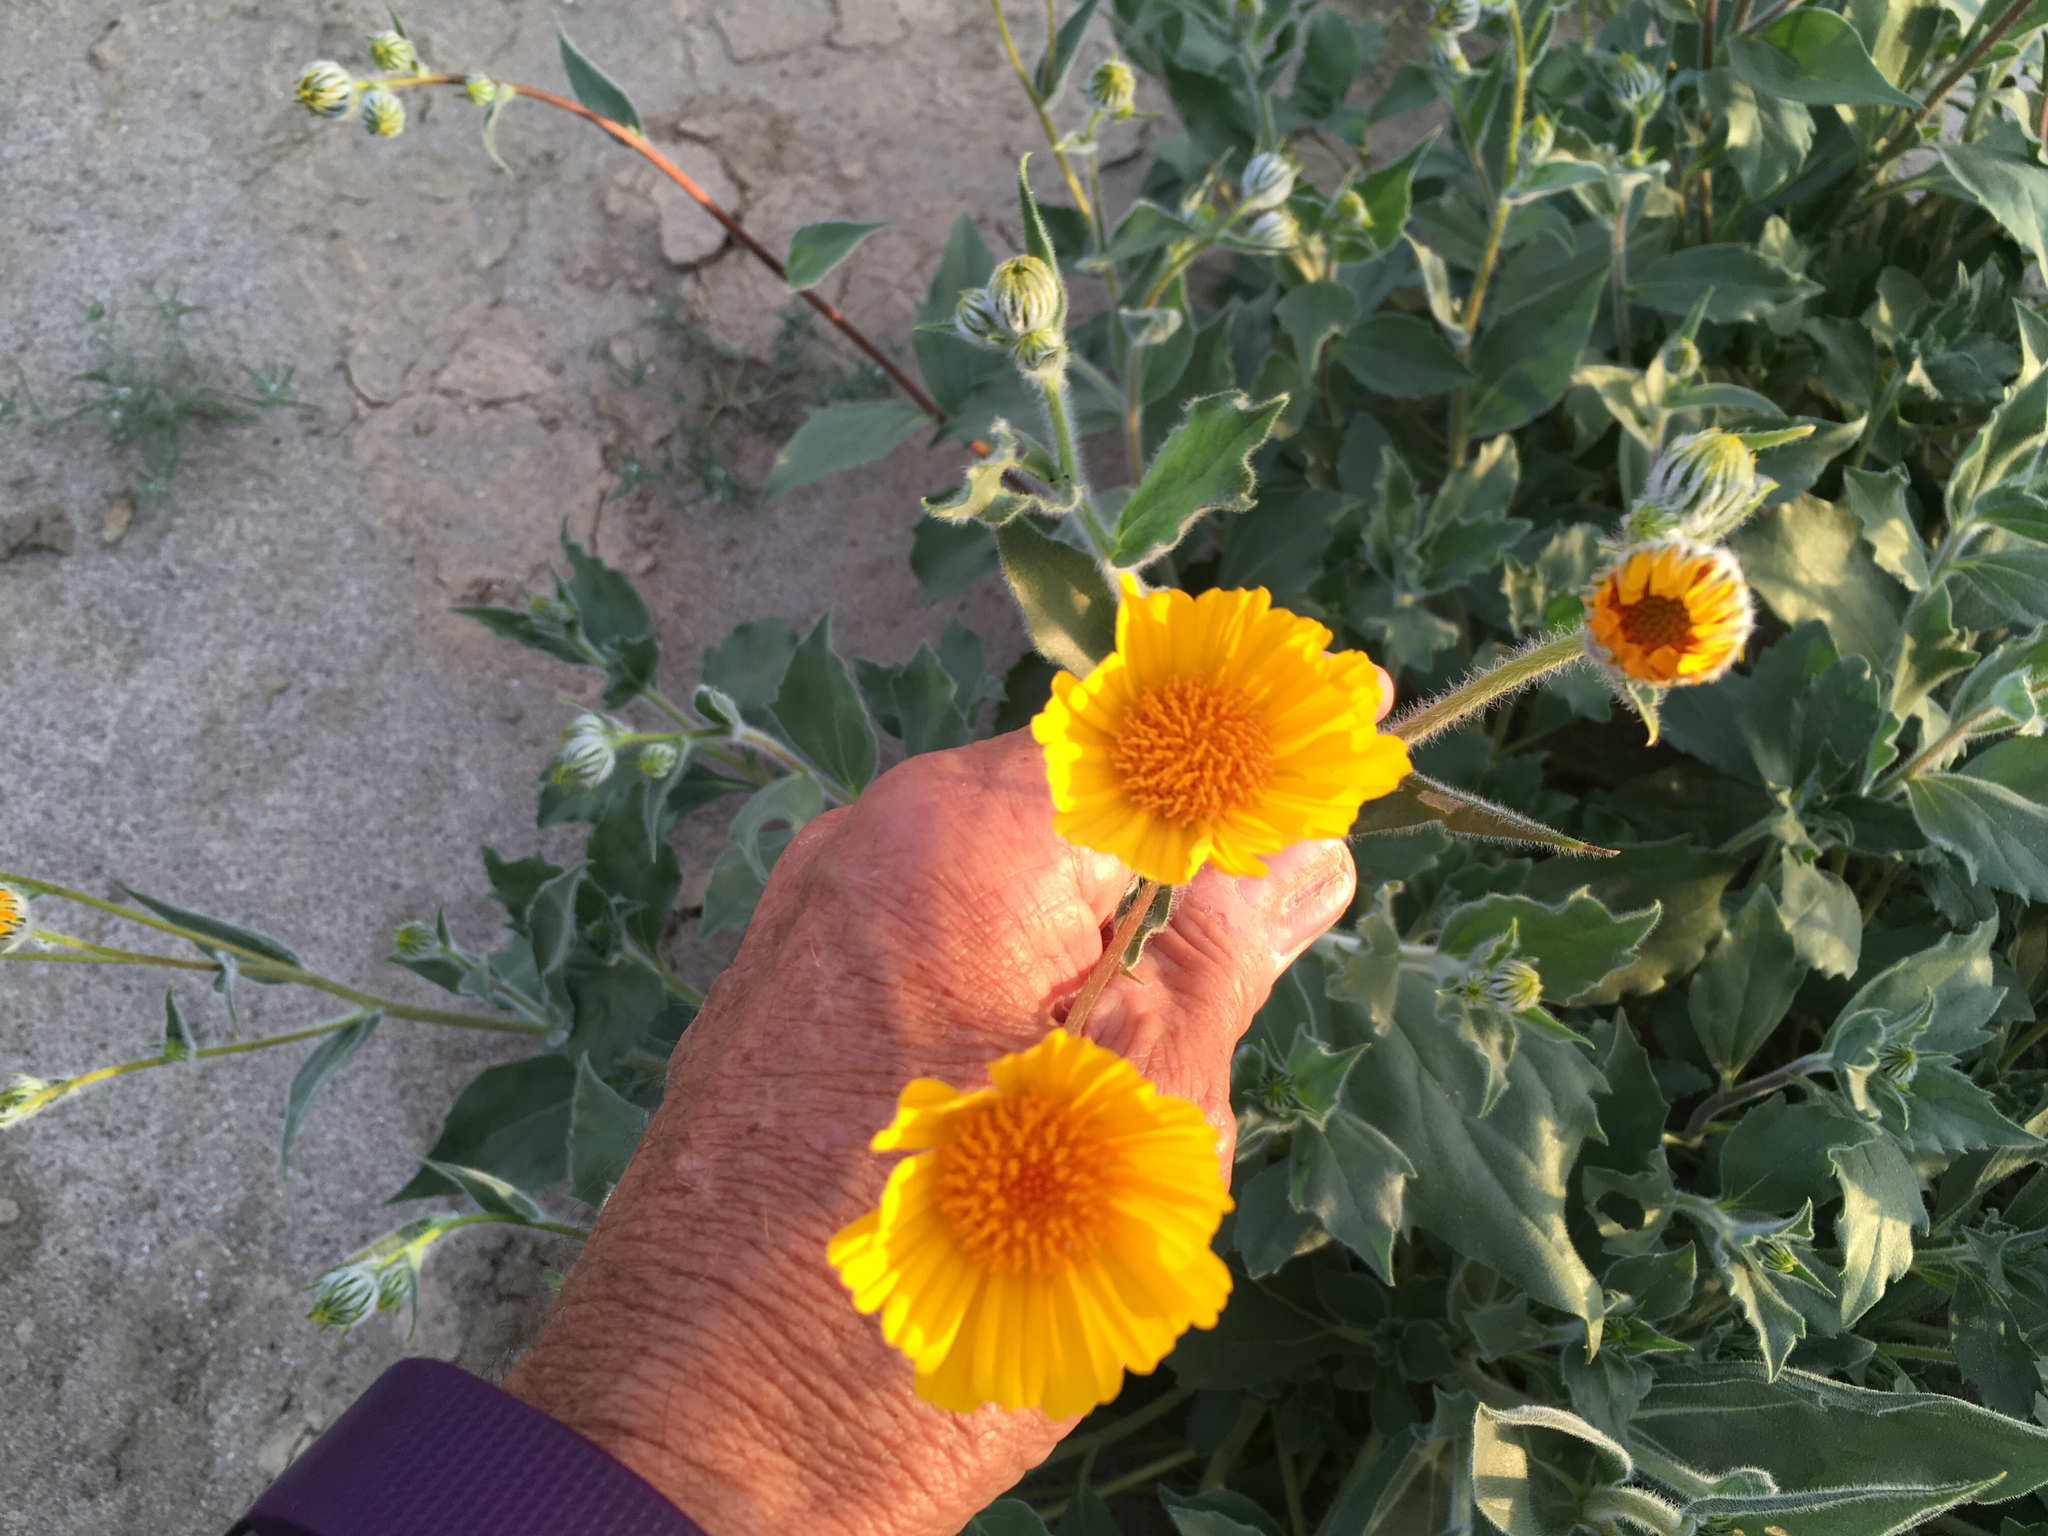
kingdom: Plantae
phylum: Tracheophyta
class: Magnoliopsida
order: Asterales
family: Asteraceae
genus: Geraea
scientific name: Geraea canescens
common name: Desert-gold
